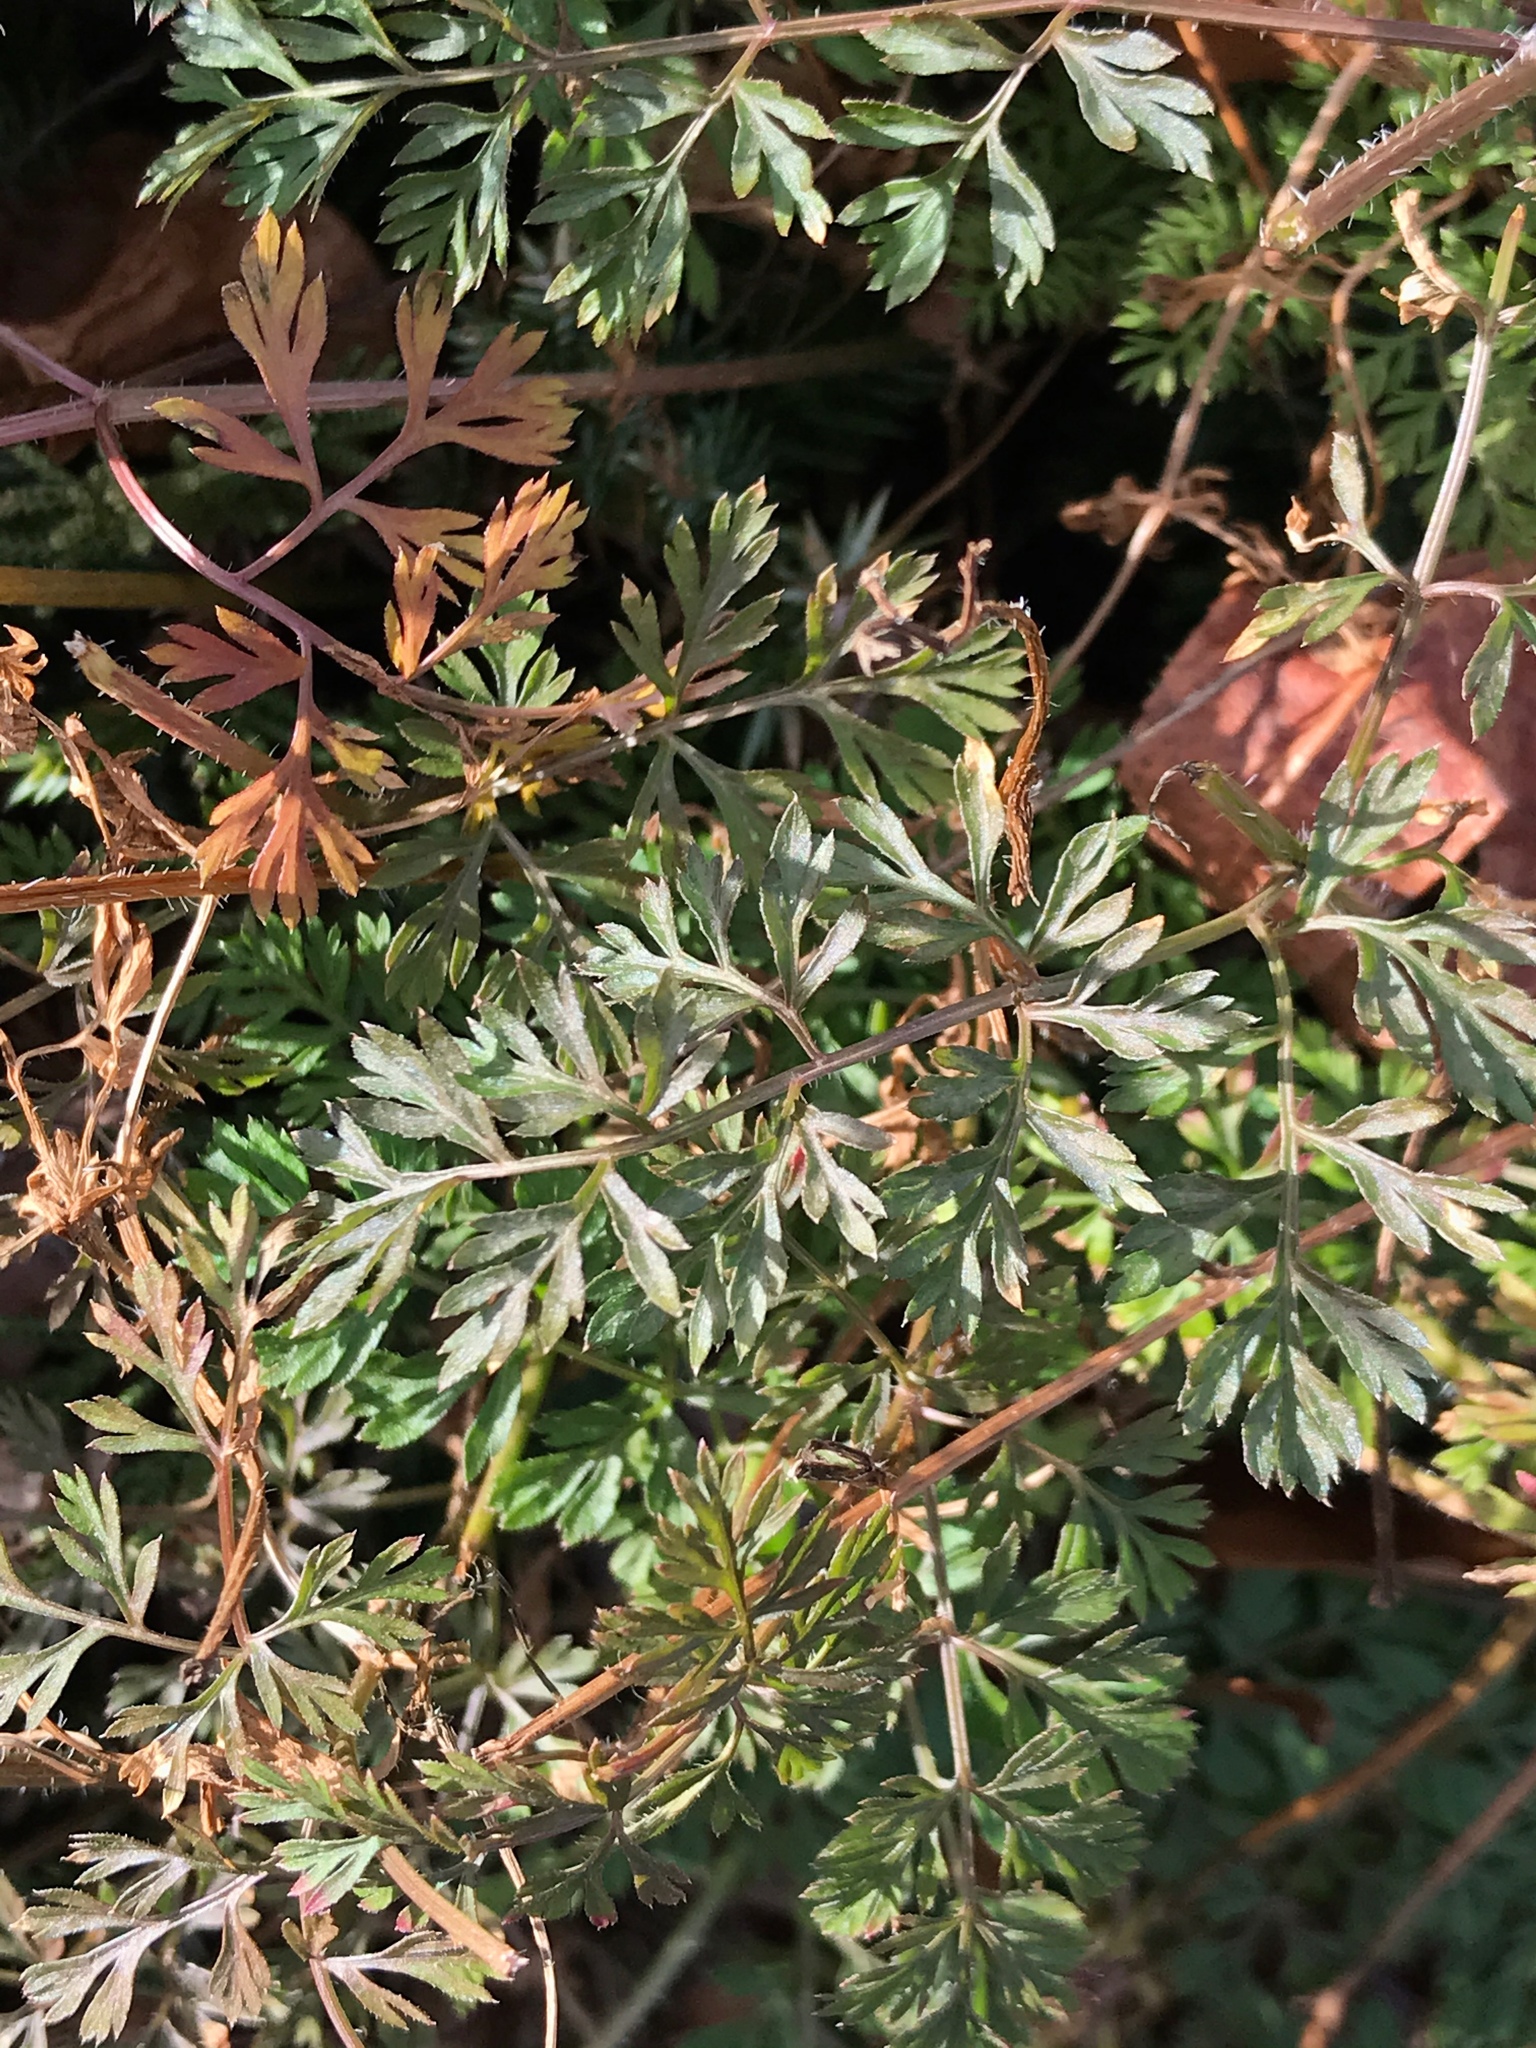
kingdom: Plantae
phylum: Tracheophyta
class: Magnoliopsida
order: Apiales
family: Apiaceae
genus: Daucus
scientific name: Daucus carota
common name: Wild carrot
